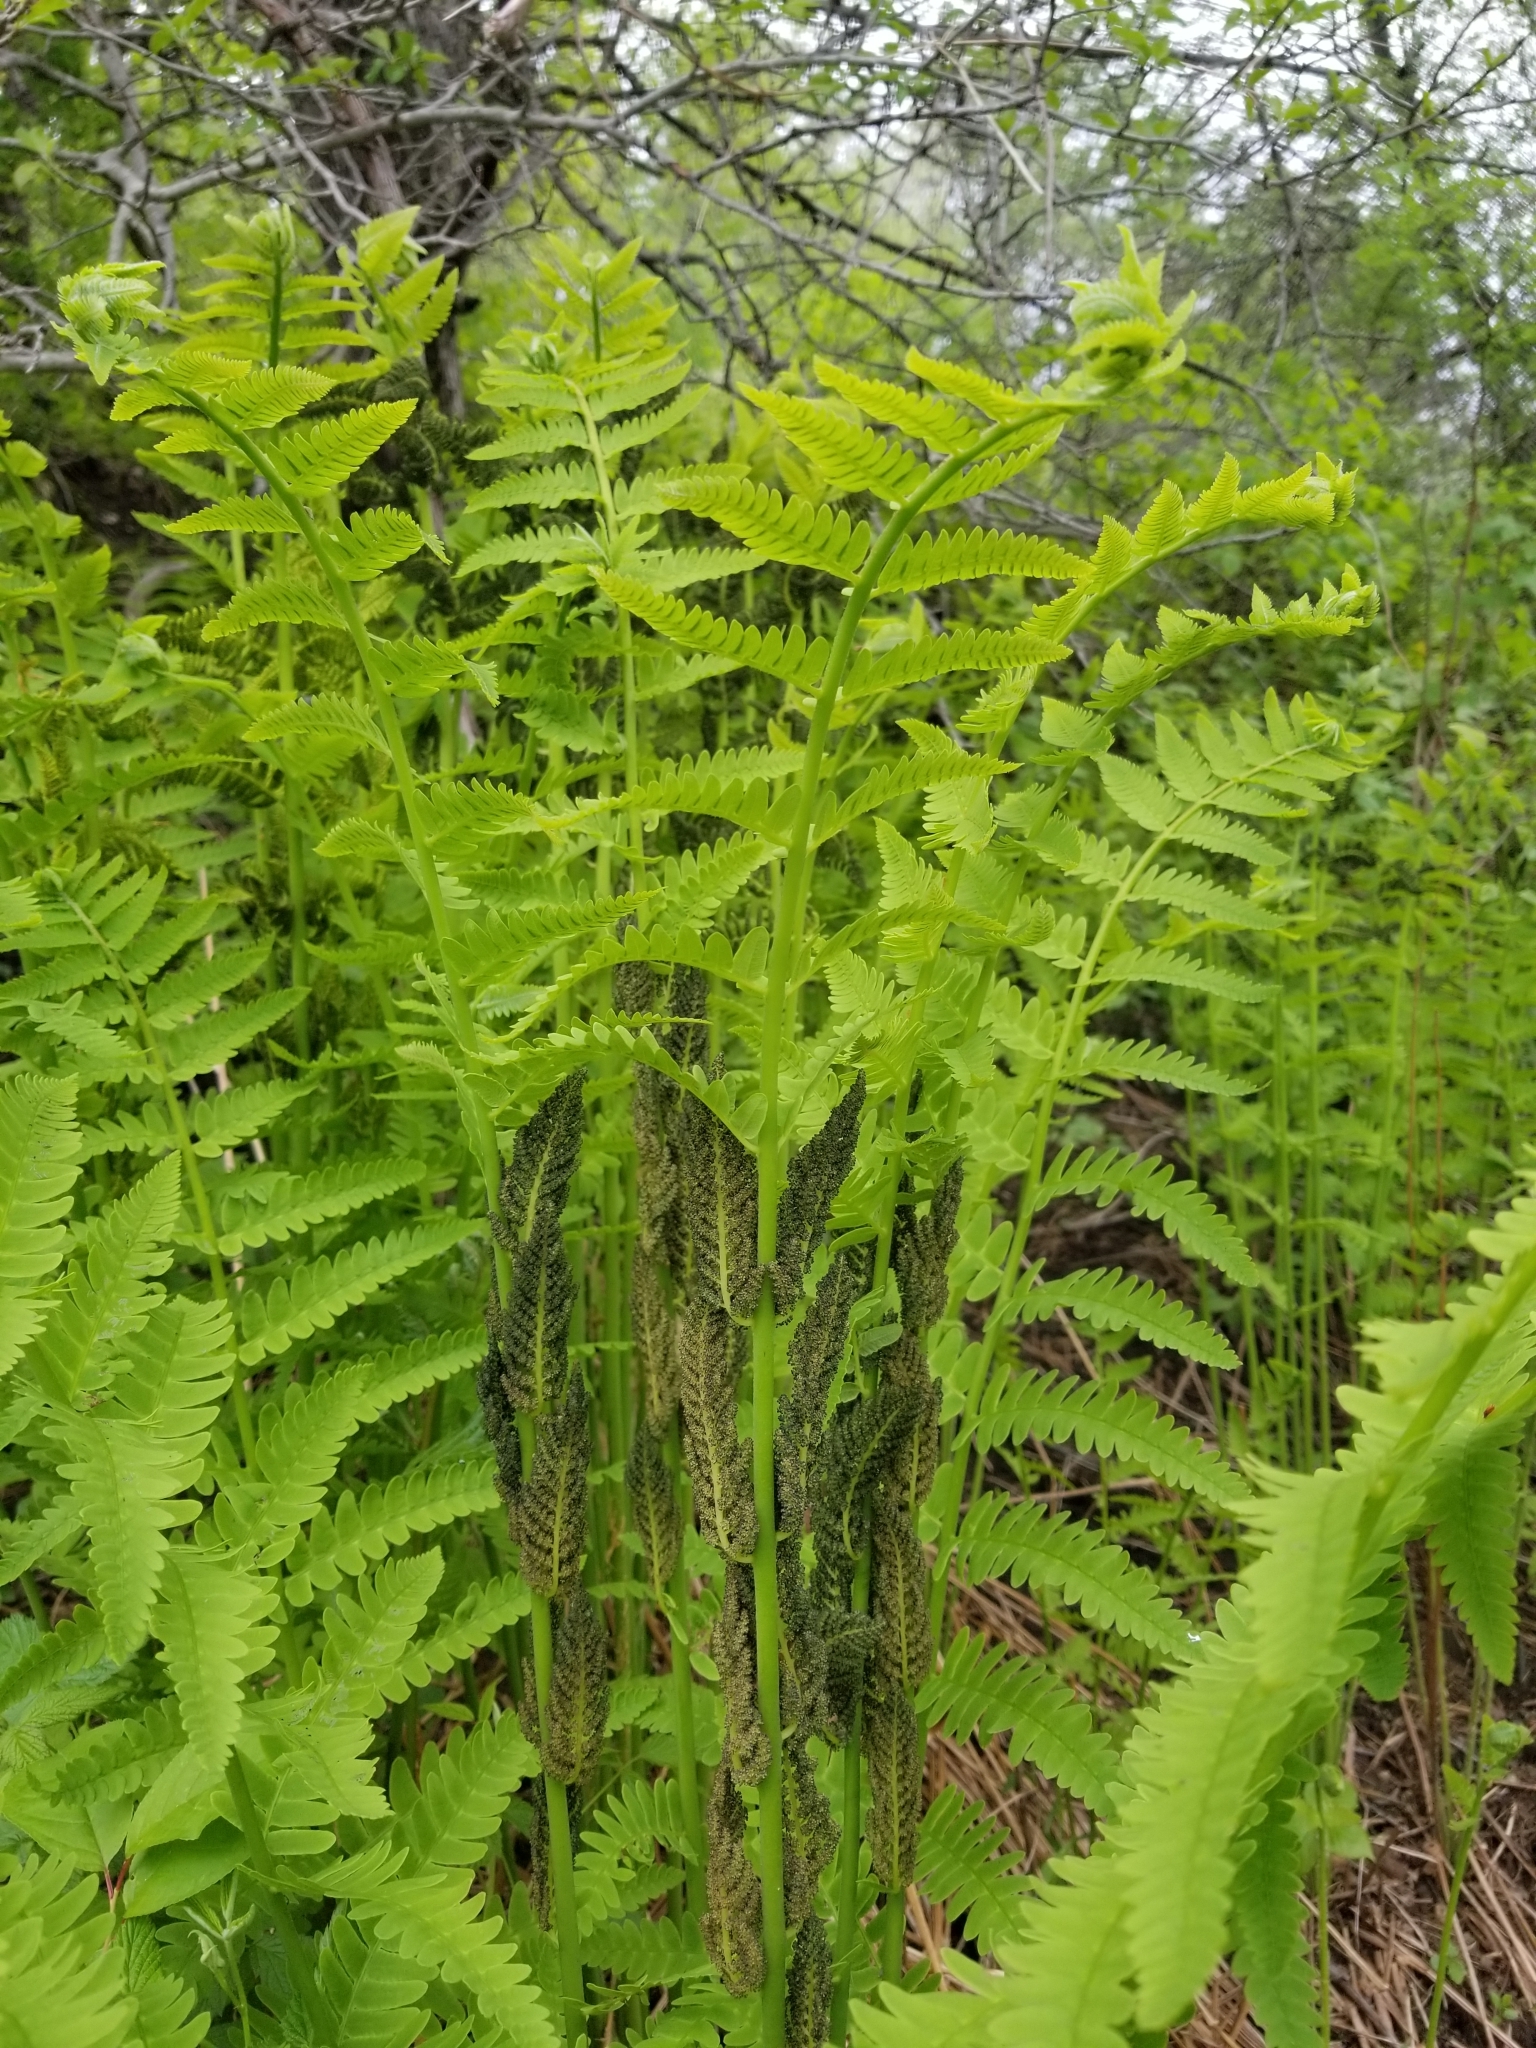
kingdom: Plantae
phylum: Tracheophyta
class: Polypodiopsida
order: Osmundales
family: Osmundaceae
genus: Claytosmunda
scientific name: Claytosmunda claytoniana
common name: Clayton's fern
